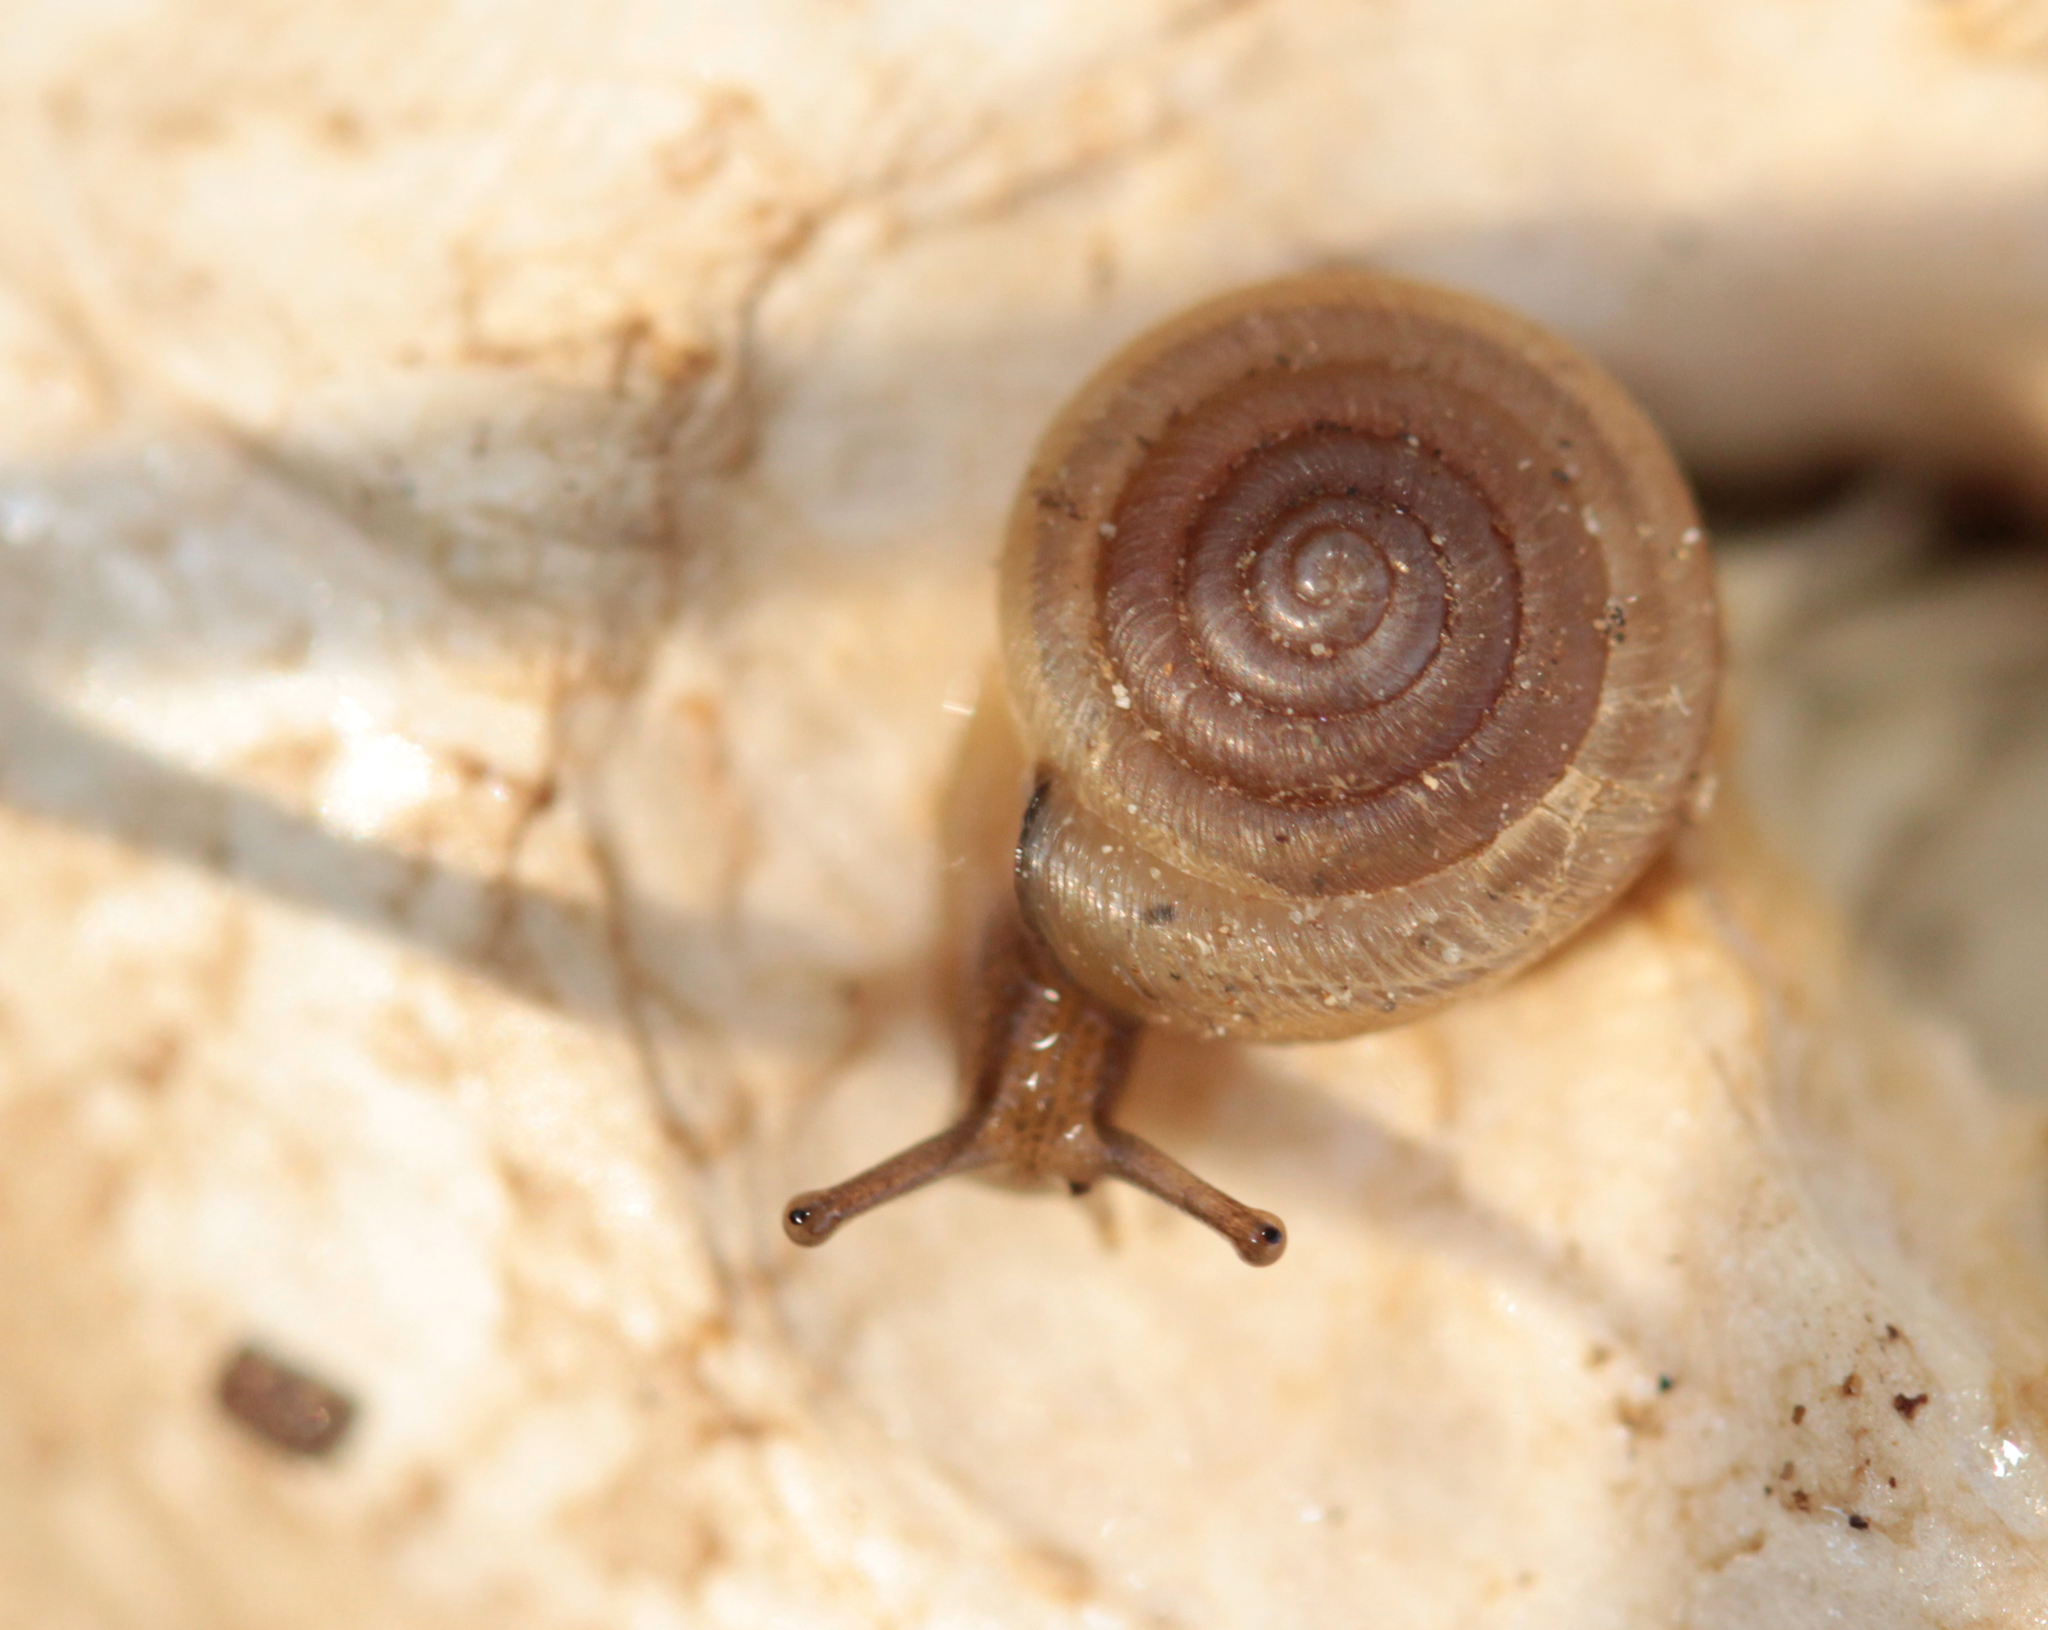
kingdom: Animalia
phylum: Mollusca
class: Gastropoda
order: Stylommatophora
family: Polygyridae
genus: Polygyra
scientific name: Polygyra cereolus
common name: Southern flatcone snail
